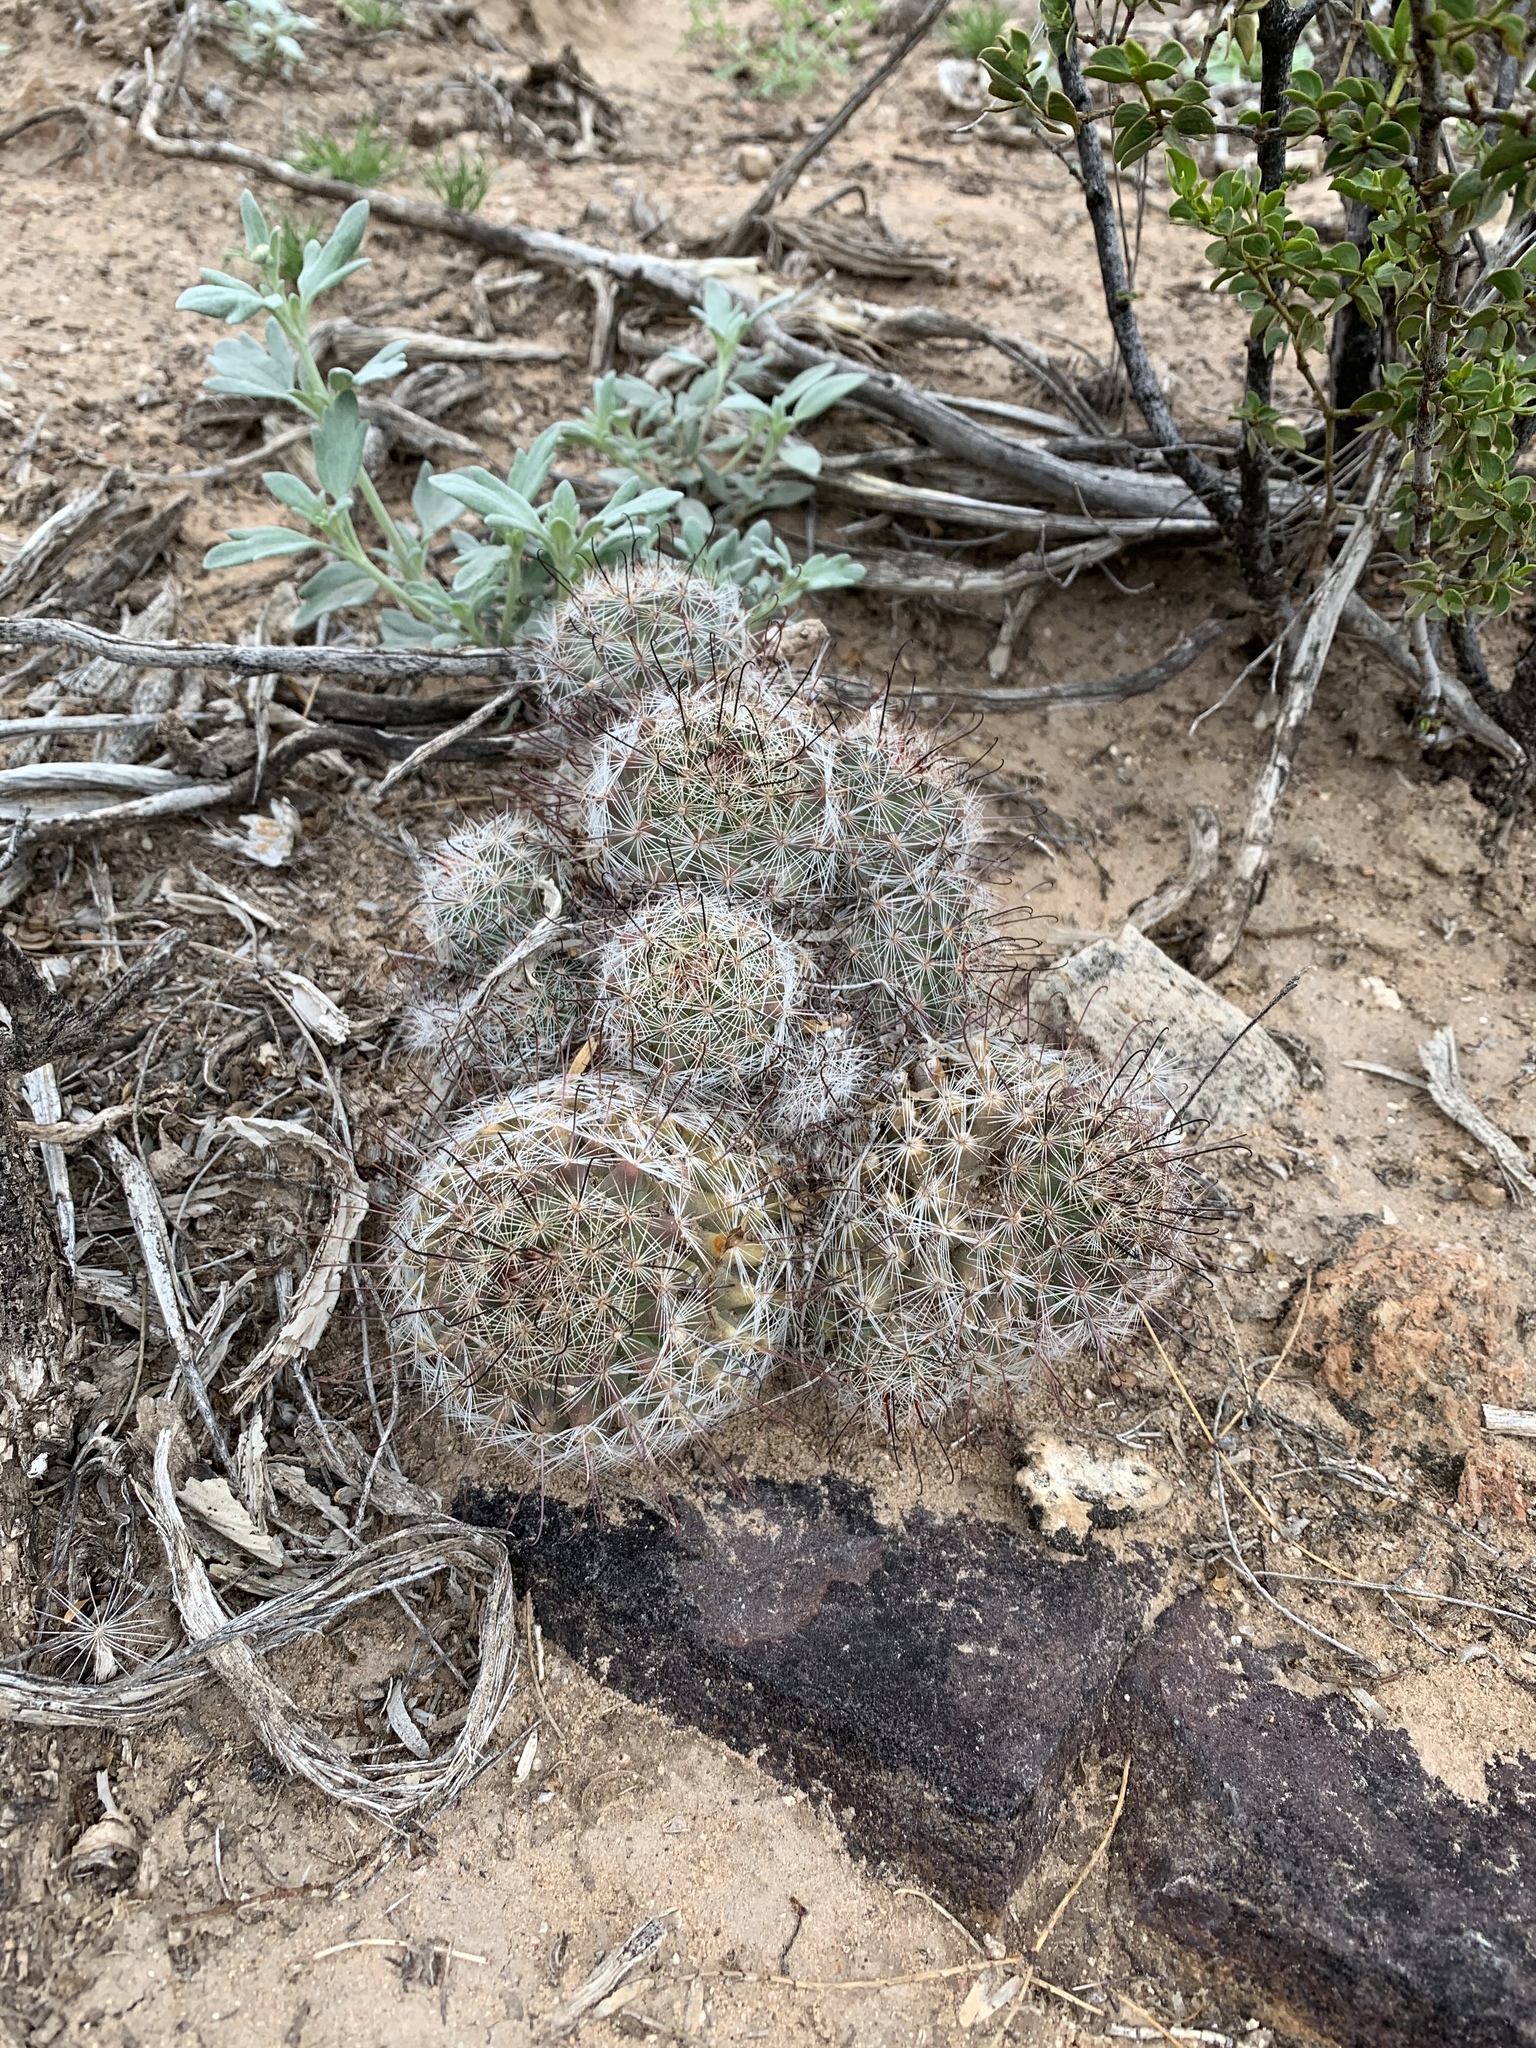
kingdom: Plantae
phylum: Tracheophyta
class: Magnoliopsida
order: Caryophyllales
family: Cactaceae
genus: Cochemiea
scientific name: Cochemiea grahamii
